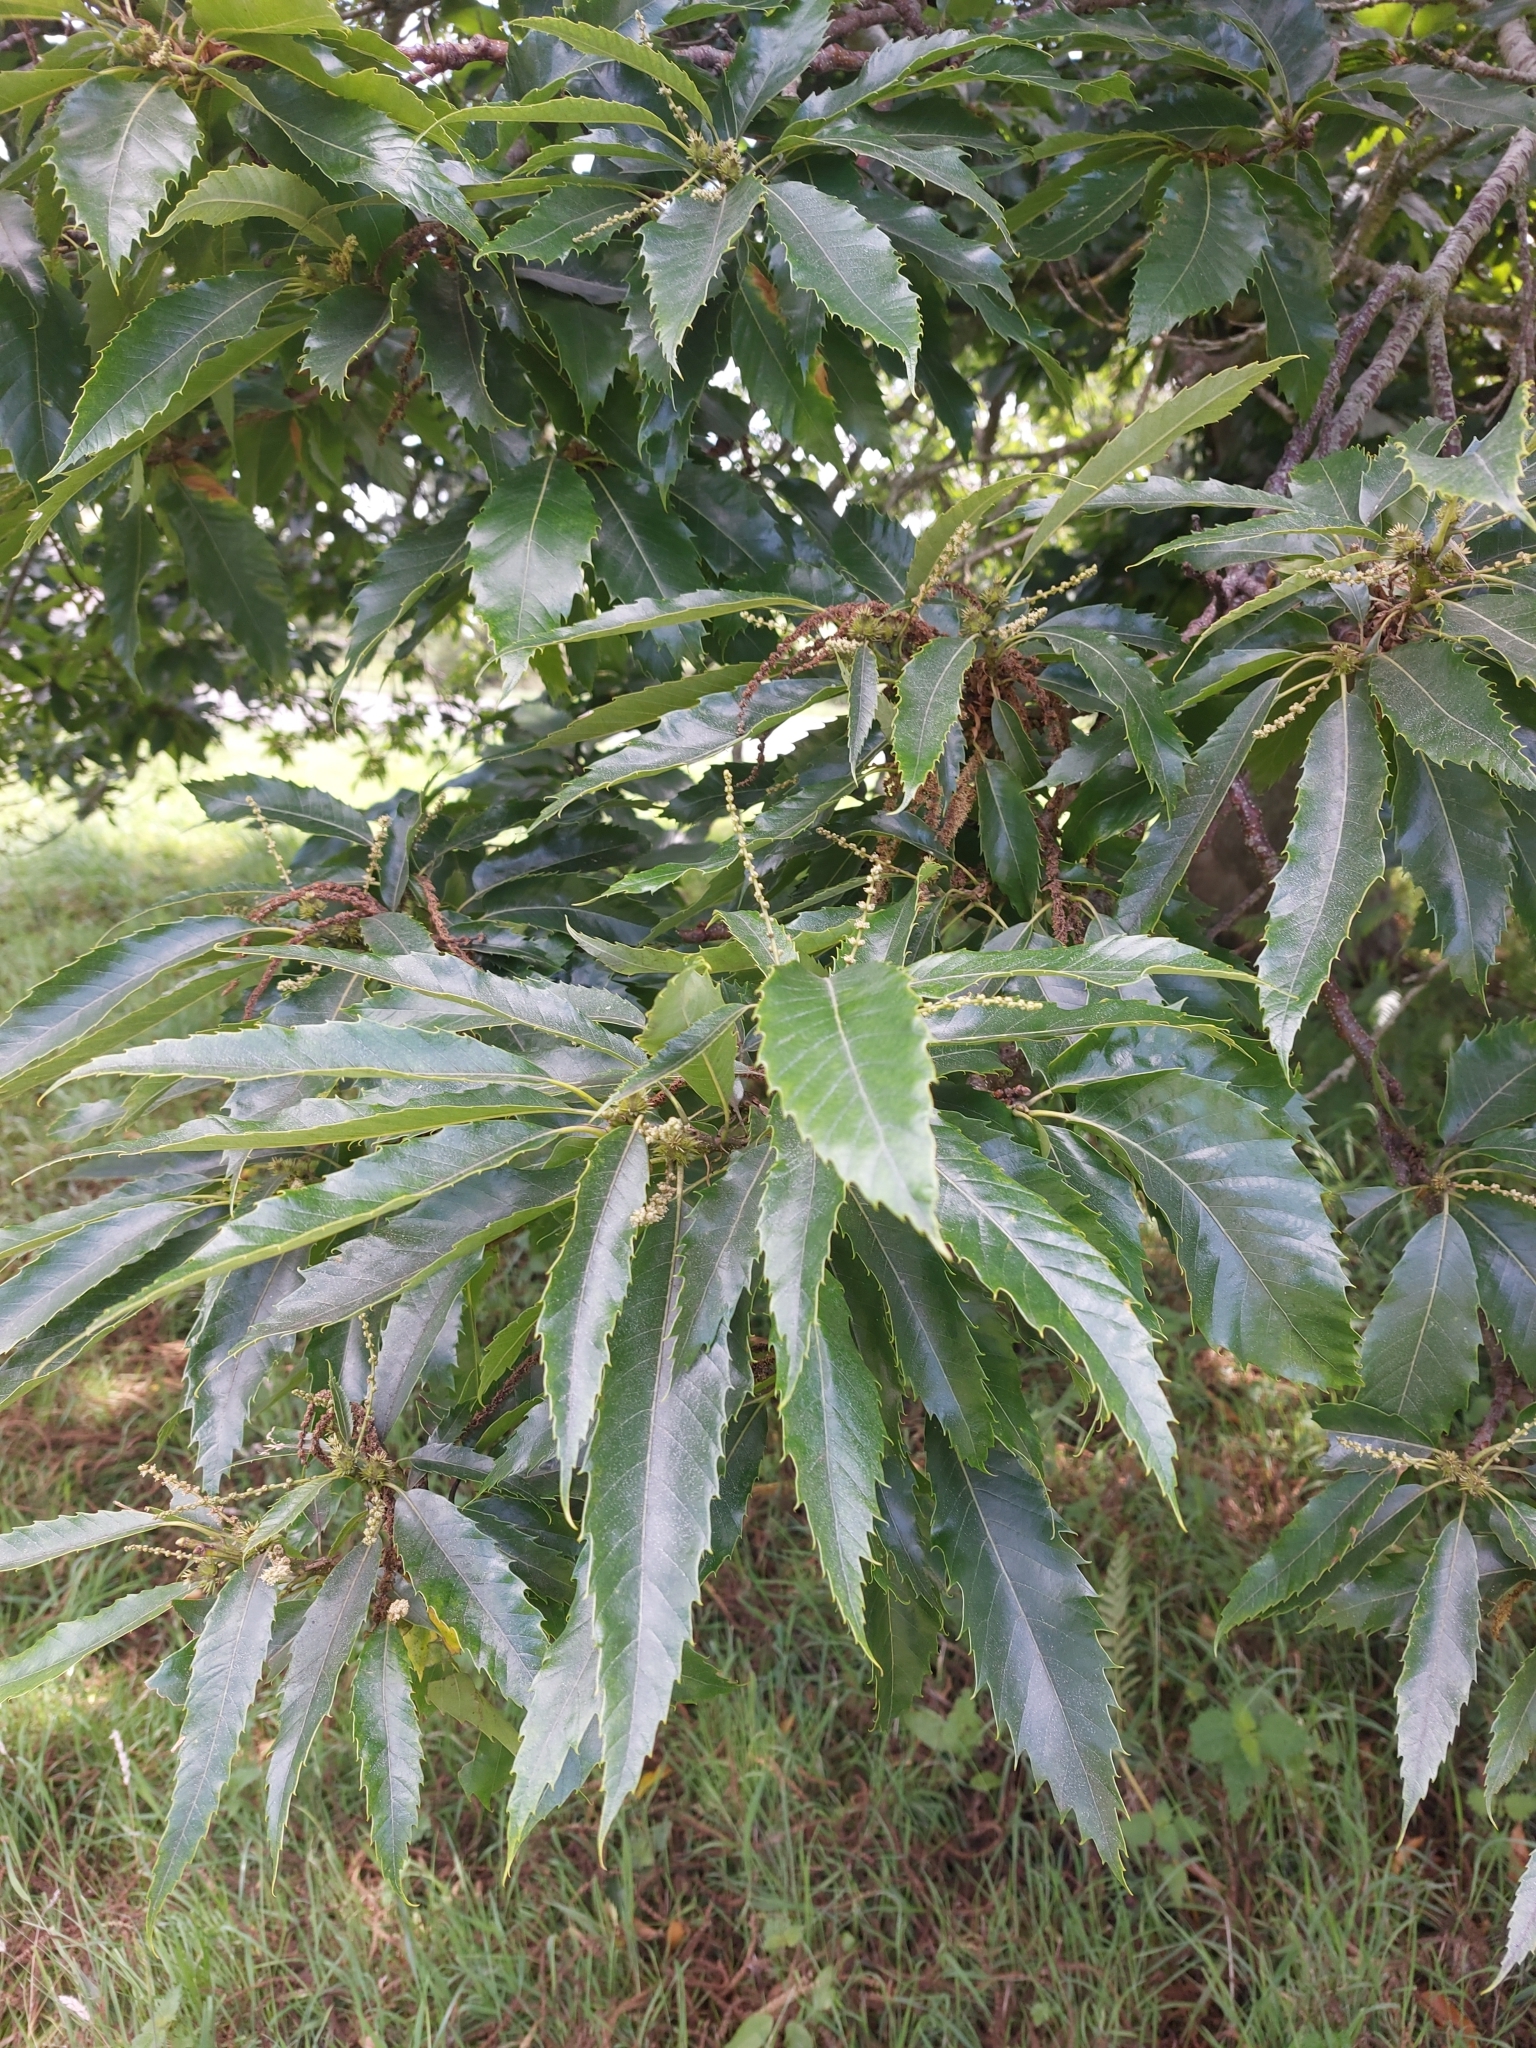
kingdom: Plantae
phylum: Tracheophyta
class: Magnoliopsida
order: Fagales
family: Fagaceae
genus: Castanea
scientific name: Castanea sativa
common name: Sweet chestnut
